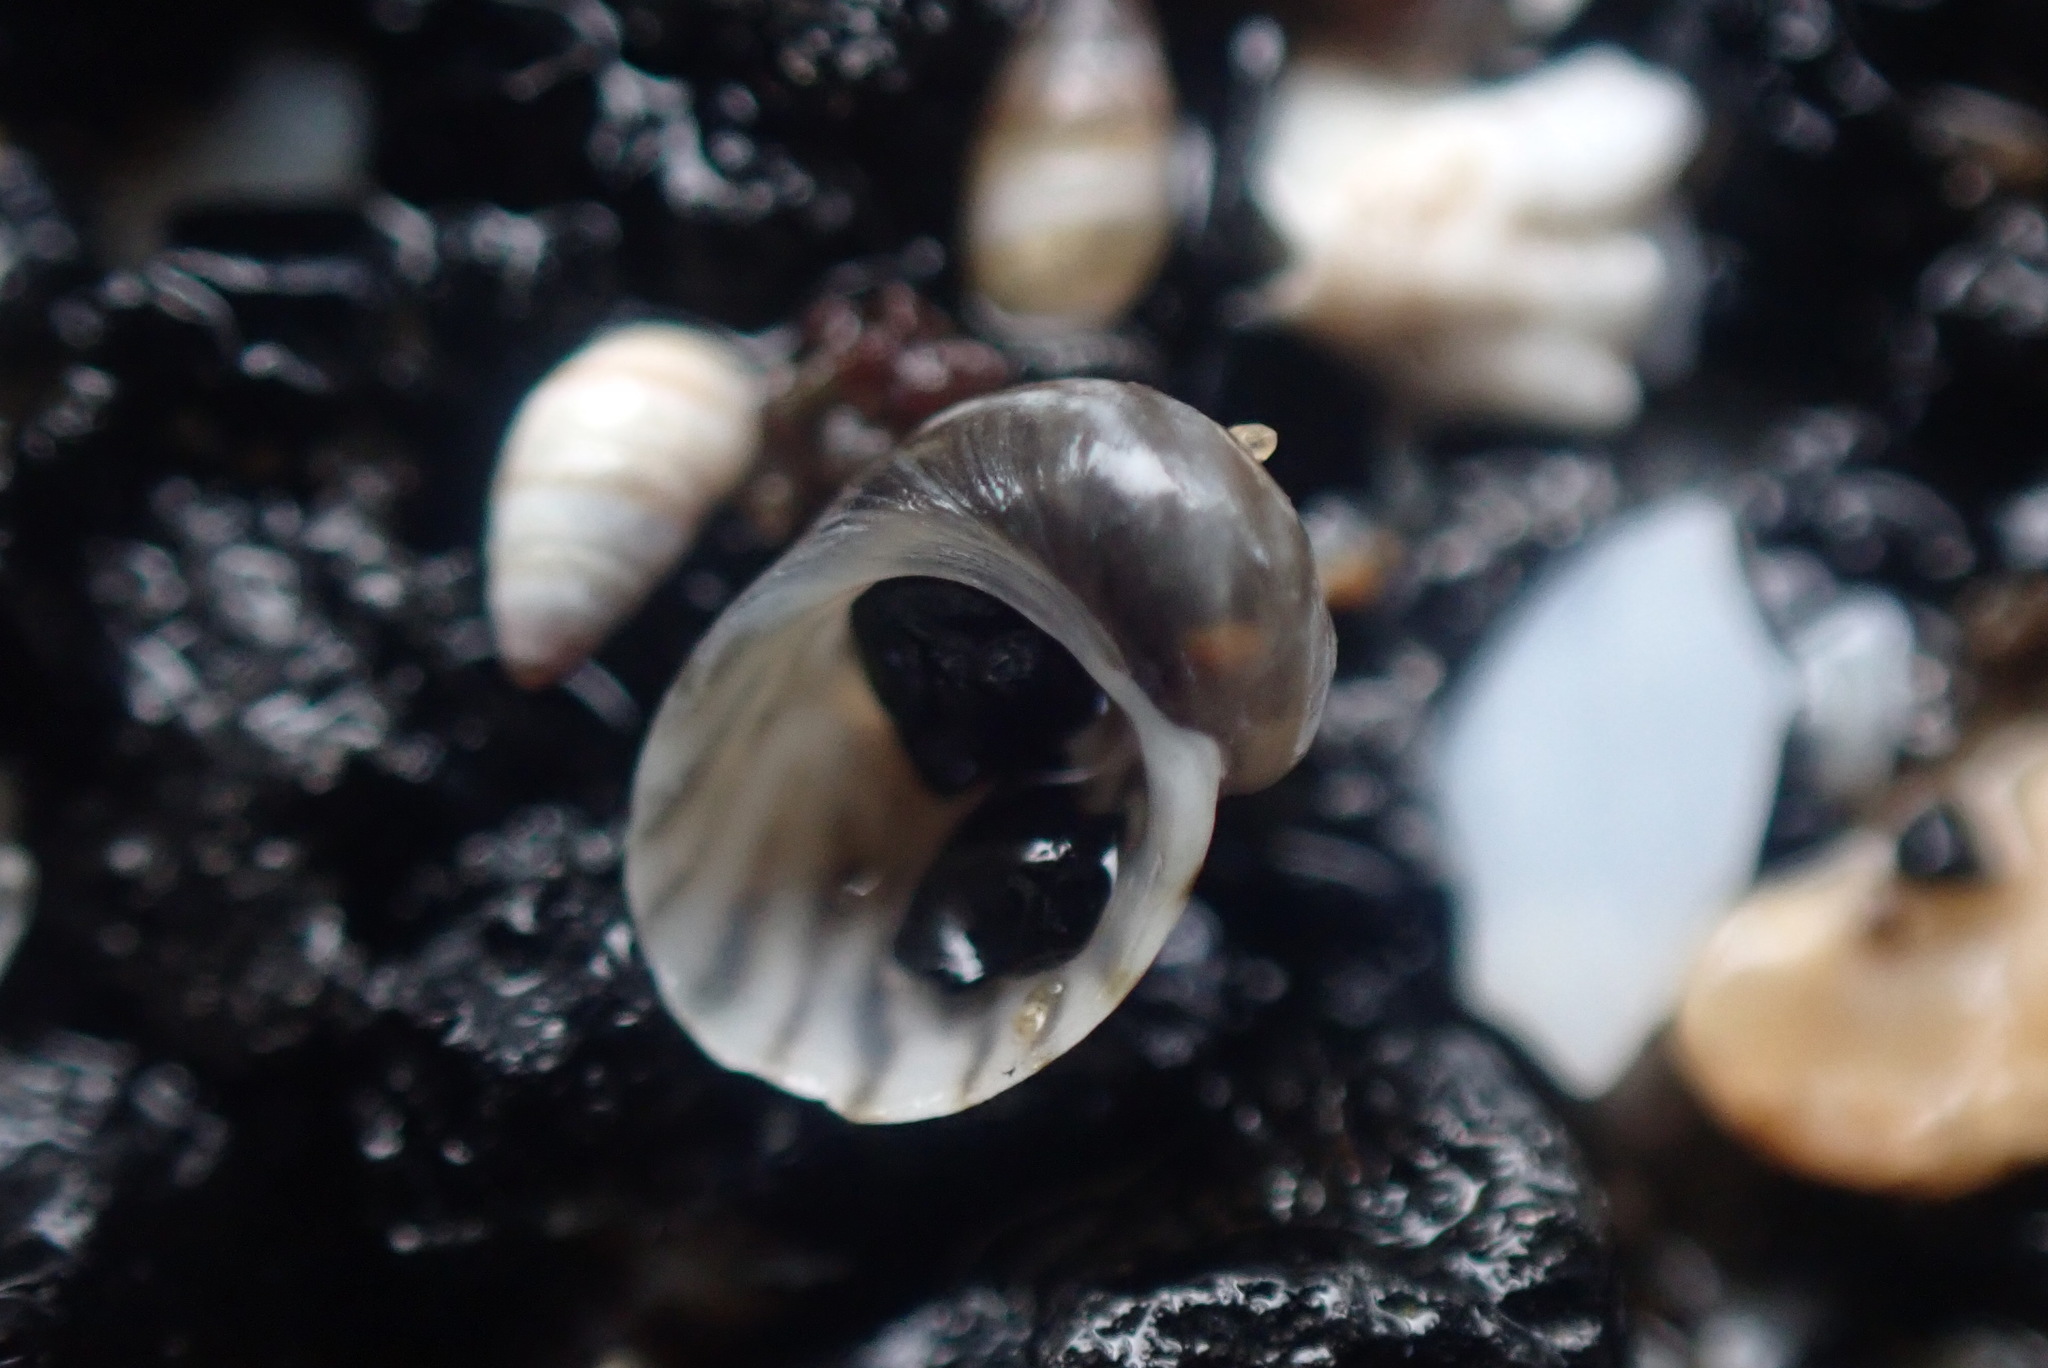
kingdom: Animalia
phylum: Mollusca
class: Gastropoda
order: Trochida
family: Trochidae
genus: Fossarina
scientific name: Fossarina rimata
